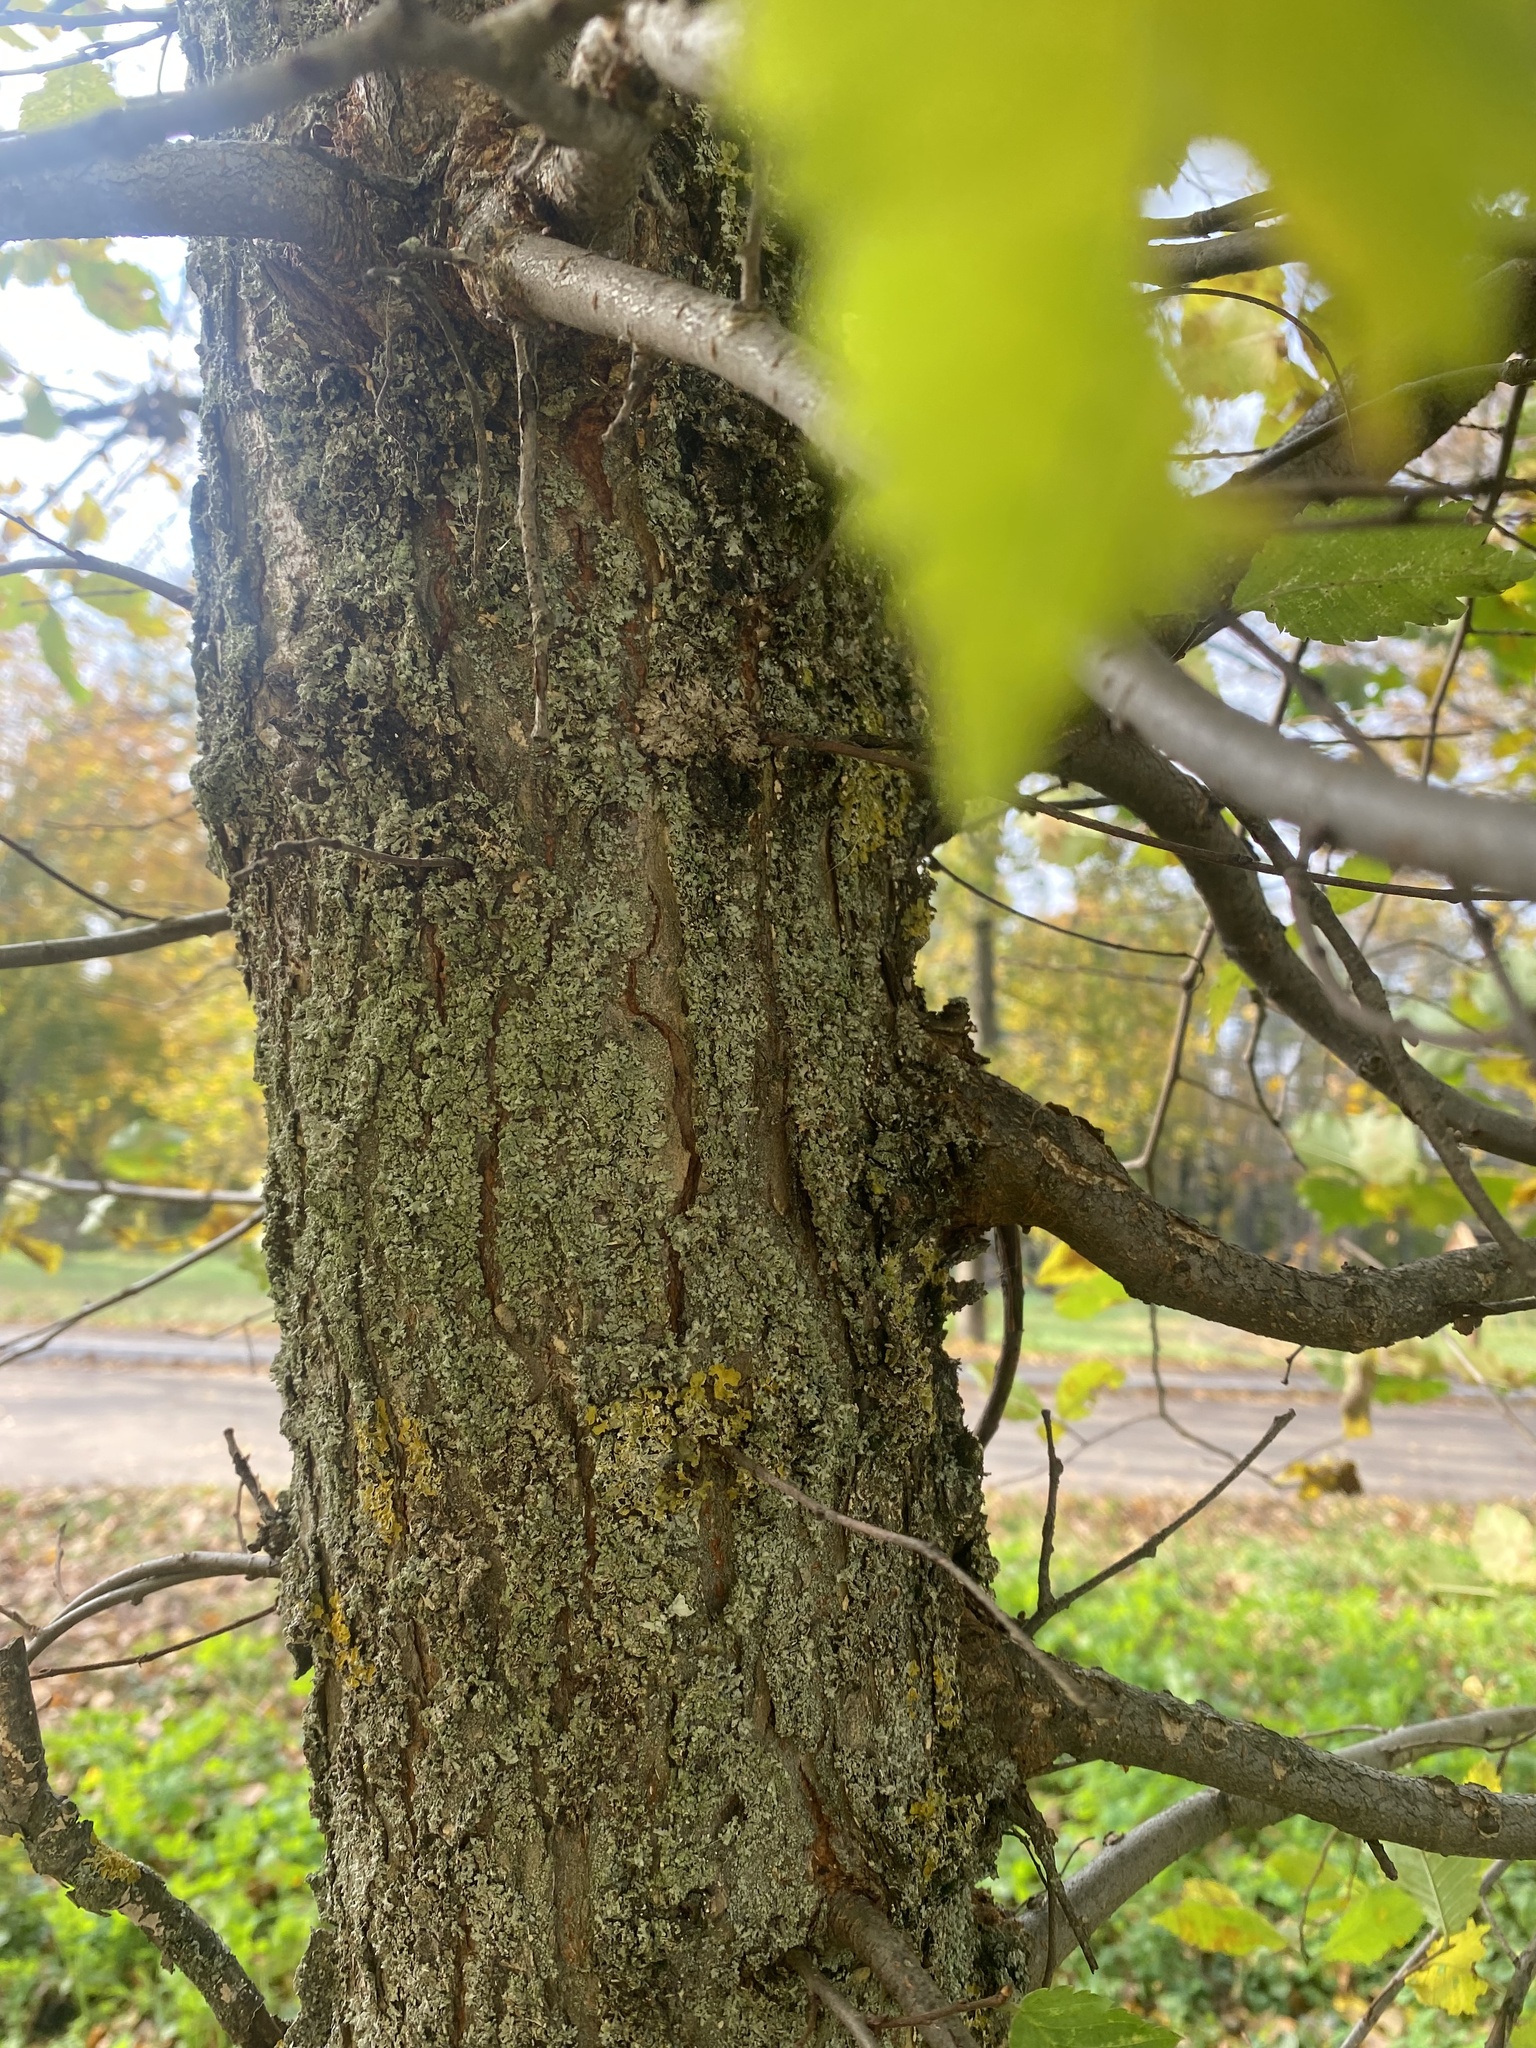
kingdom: Plantae
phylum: Tracheophyta
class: Magnoliopsida
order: Rosales
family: Ulmaceae
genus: Ulmus
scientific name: Ulmus laevis
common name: European white-elm
